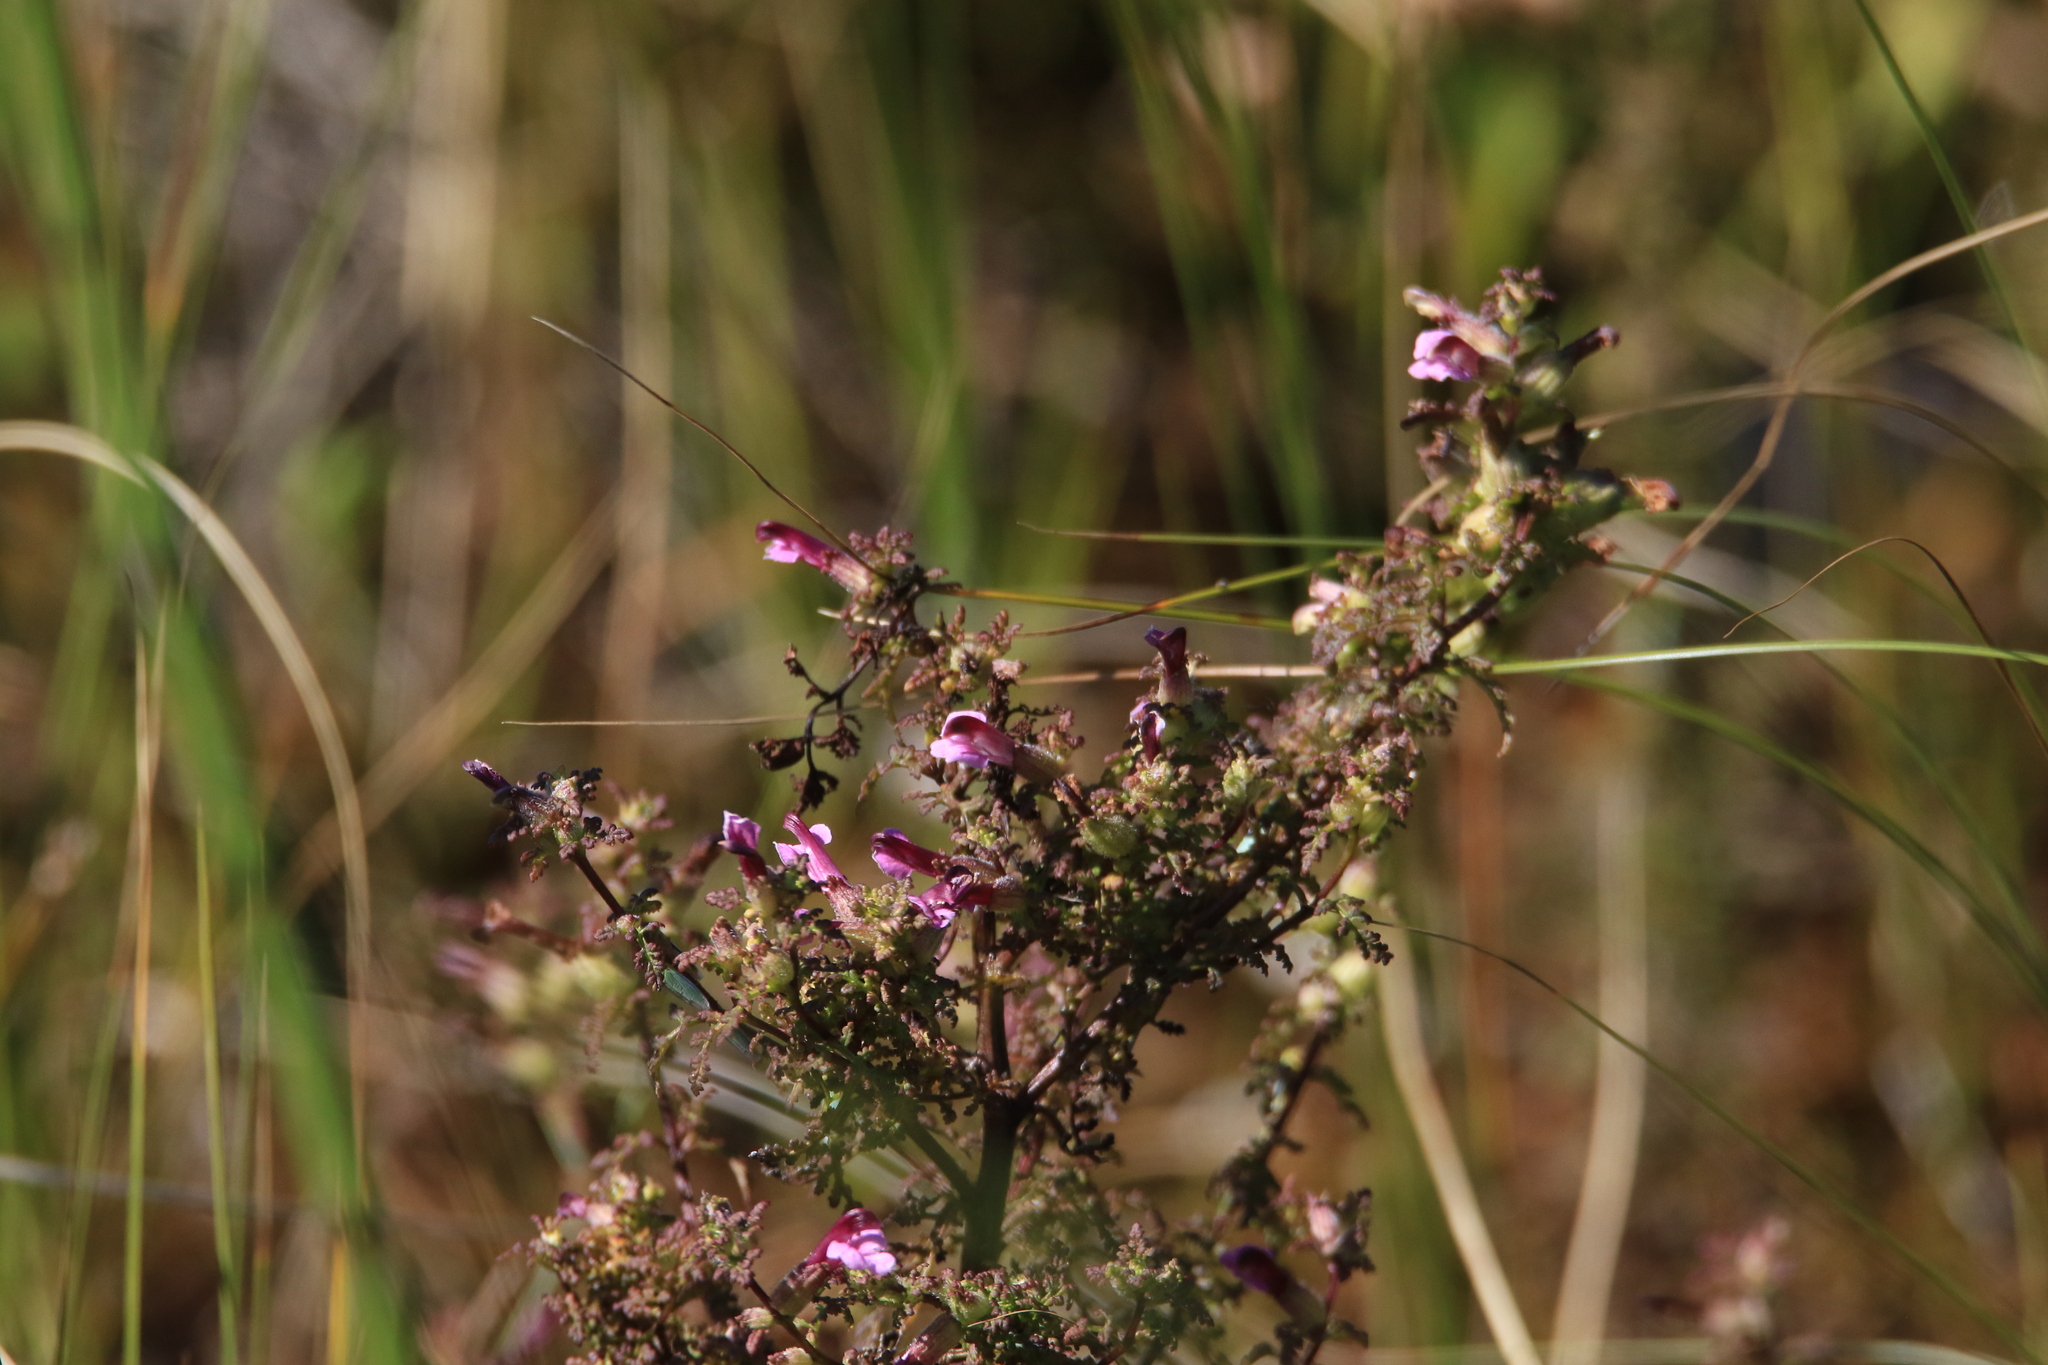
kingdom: Plantae
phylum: Tracheophyta
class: Magnoliopsida
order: Lamiales
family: Orobanchaceae
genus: Pedicularis
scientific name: Pedicularis karoi
